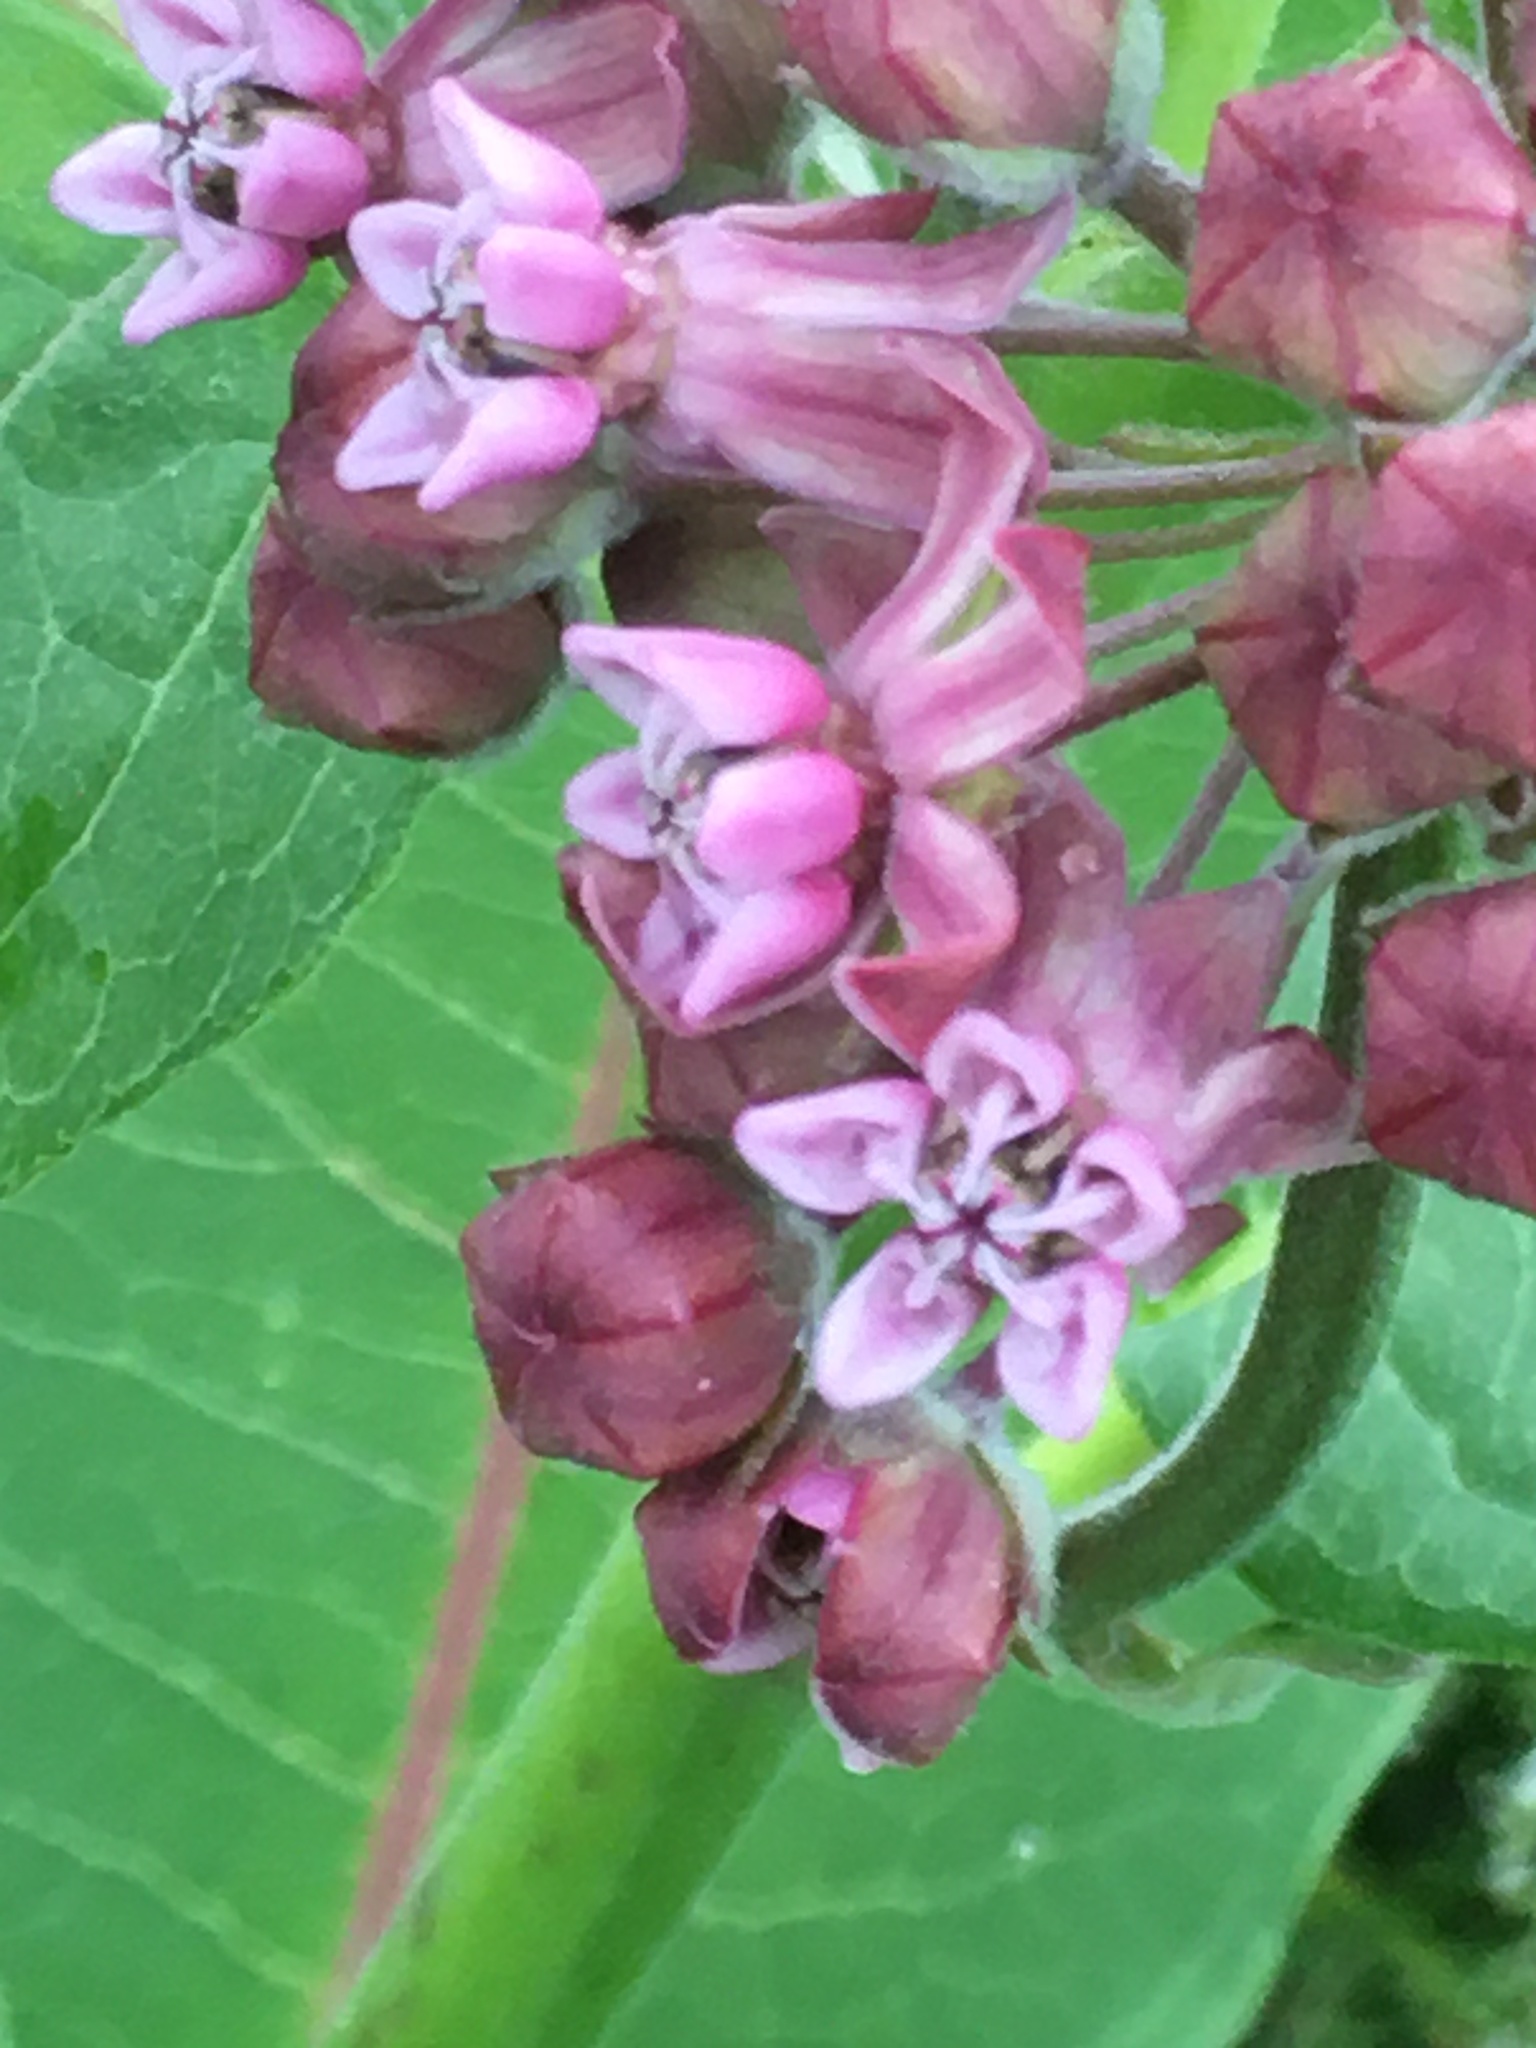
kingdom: Plantae
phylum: Tracheophyta
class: Magnoliopsida
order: Gentianales
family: Apocynaceae
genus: Asclepias
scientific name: Asclepias syriaca
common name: Common milkweed
